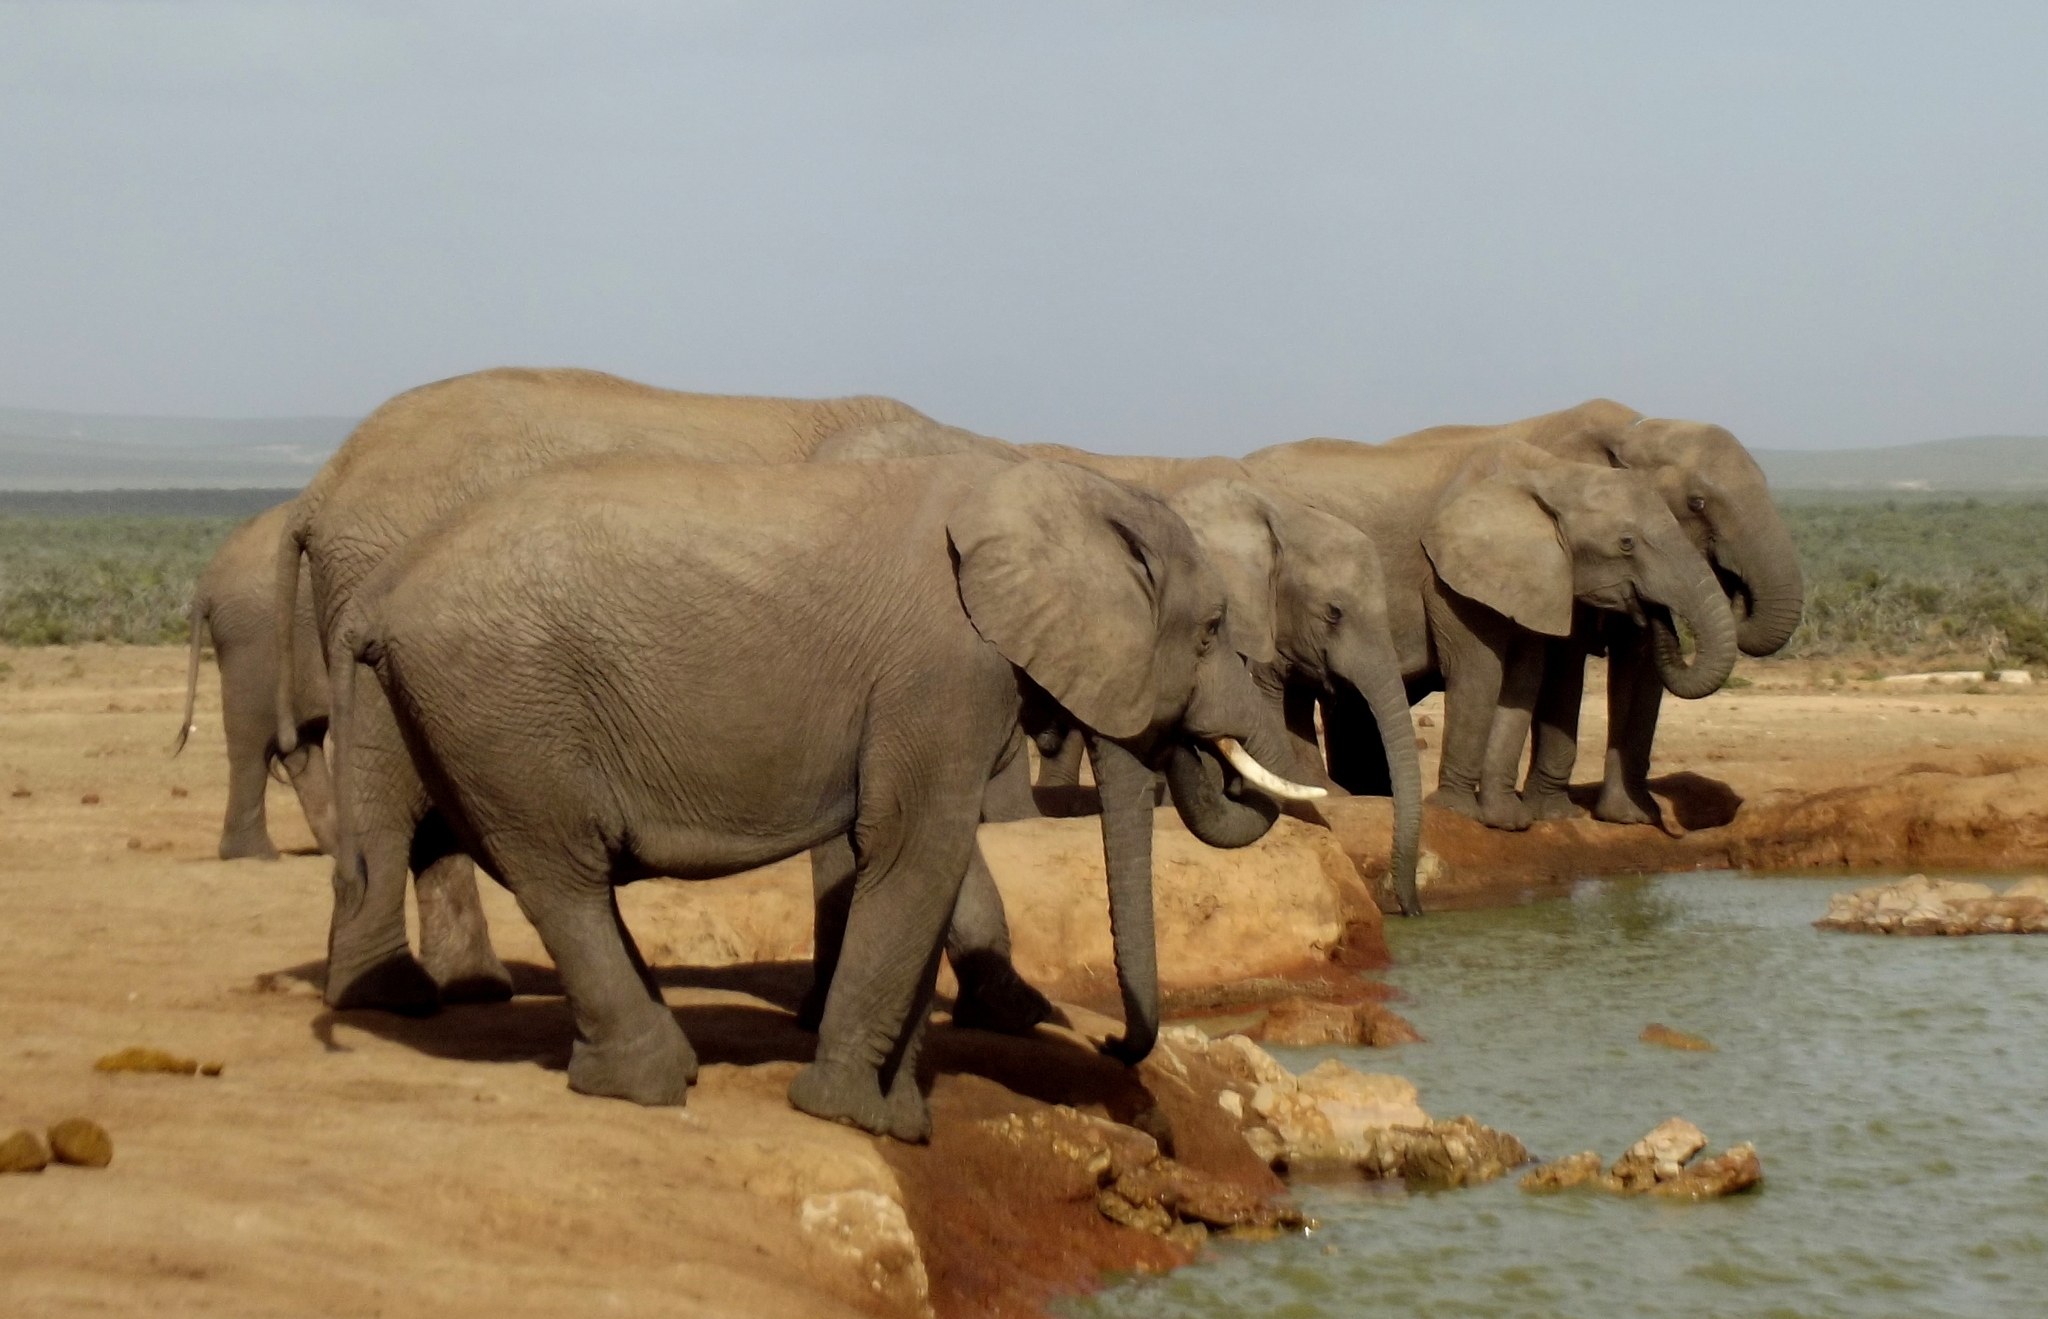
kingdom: Animalia
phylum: Chordata
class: Mammalia
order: Proboscidea
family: Elephantidae
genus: Loxodonta
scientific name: Loxodonta africana
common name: African elephant
